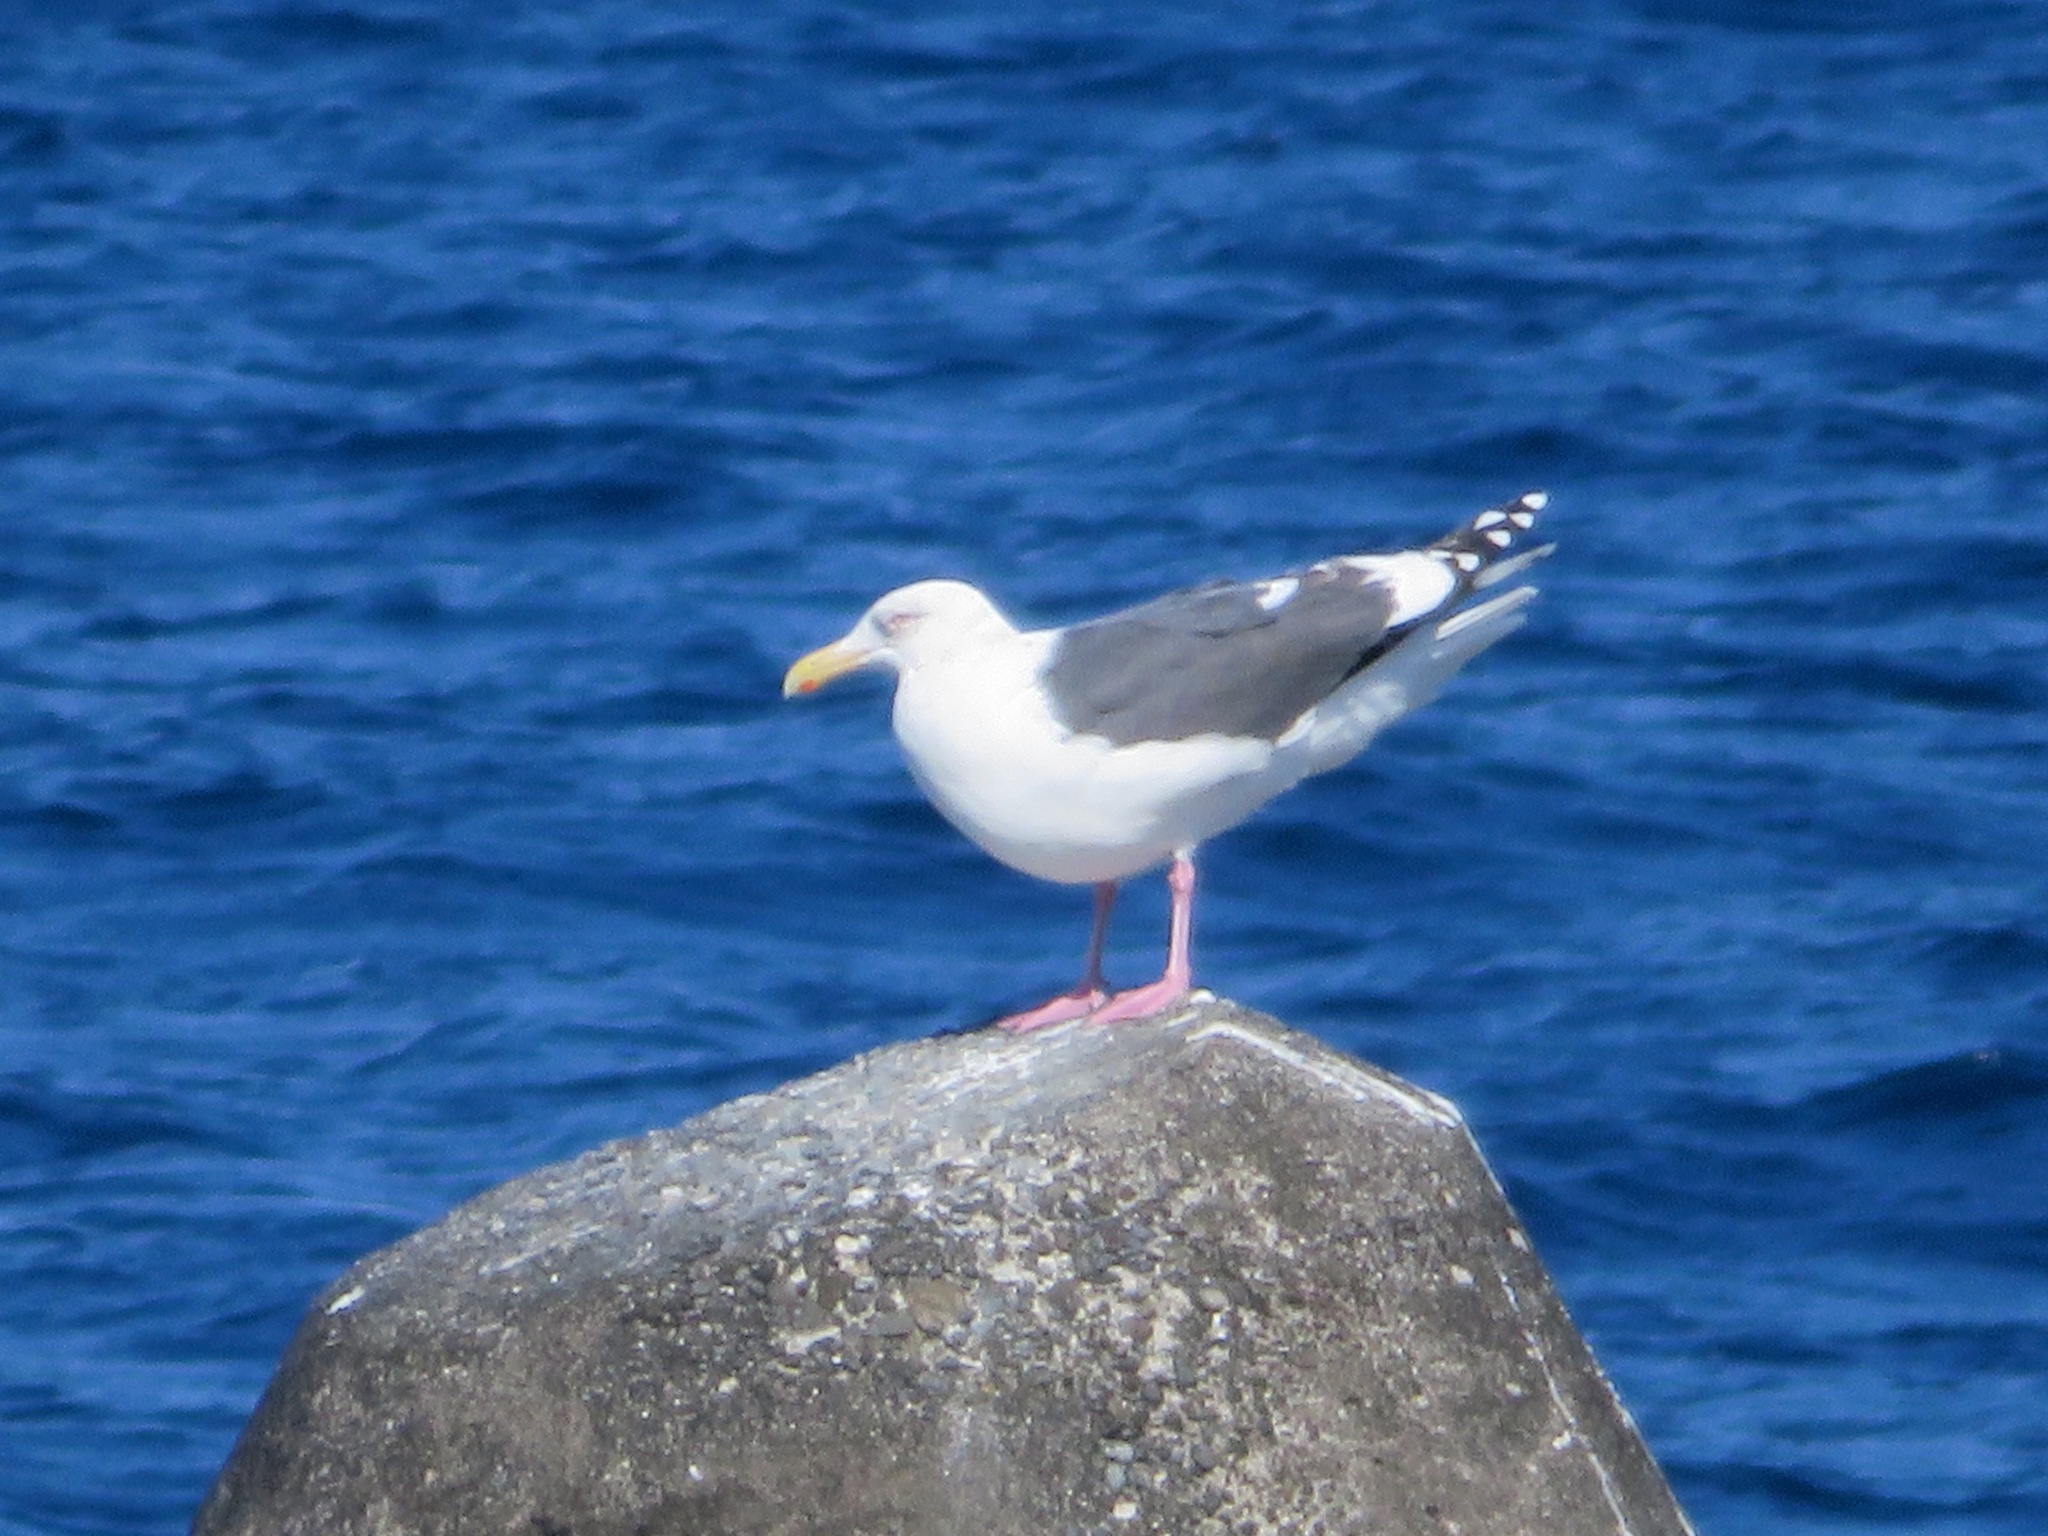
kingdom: Animalia
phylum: Chordata
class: Aves
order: Charadriiformes
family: Laridae
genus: Larus
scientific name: Larus schistisagus
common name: Slaty-backed gull
